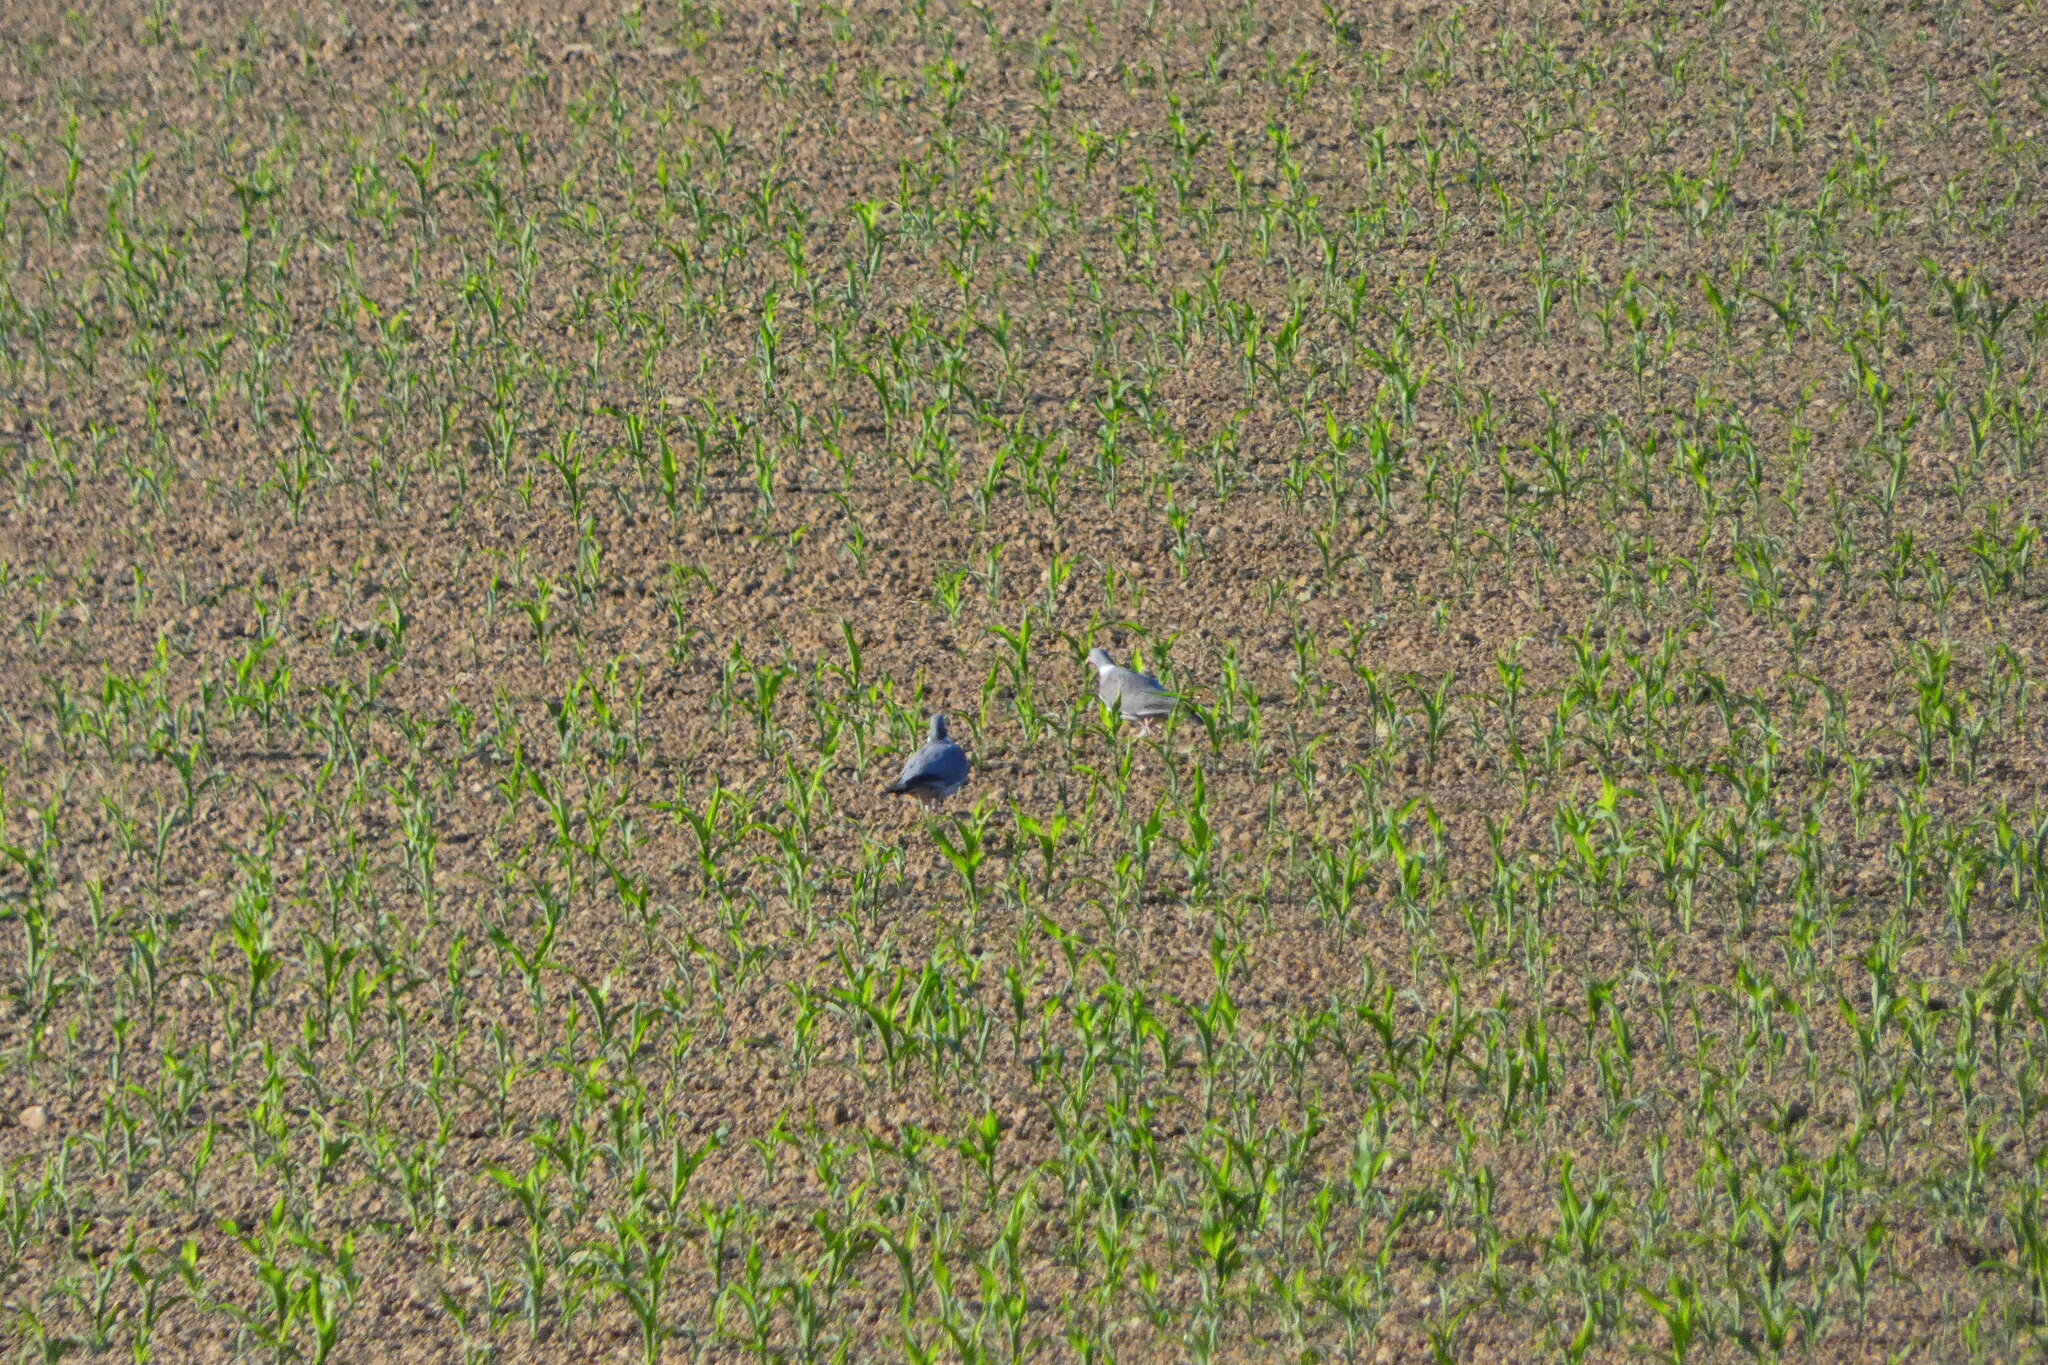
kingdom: Animalia
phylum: Chordata
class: Aves
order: Columbiformes
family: Columbidae
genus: Columba
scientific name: Columba palumbus
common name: Common wood pigeon
